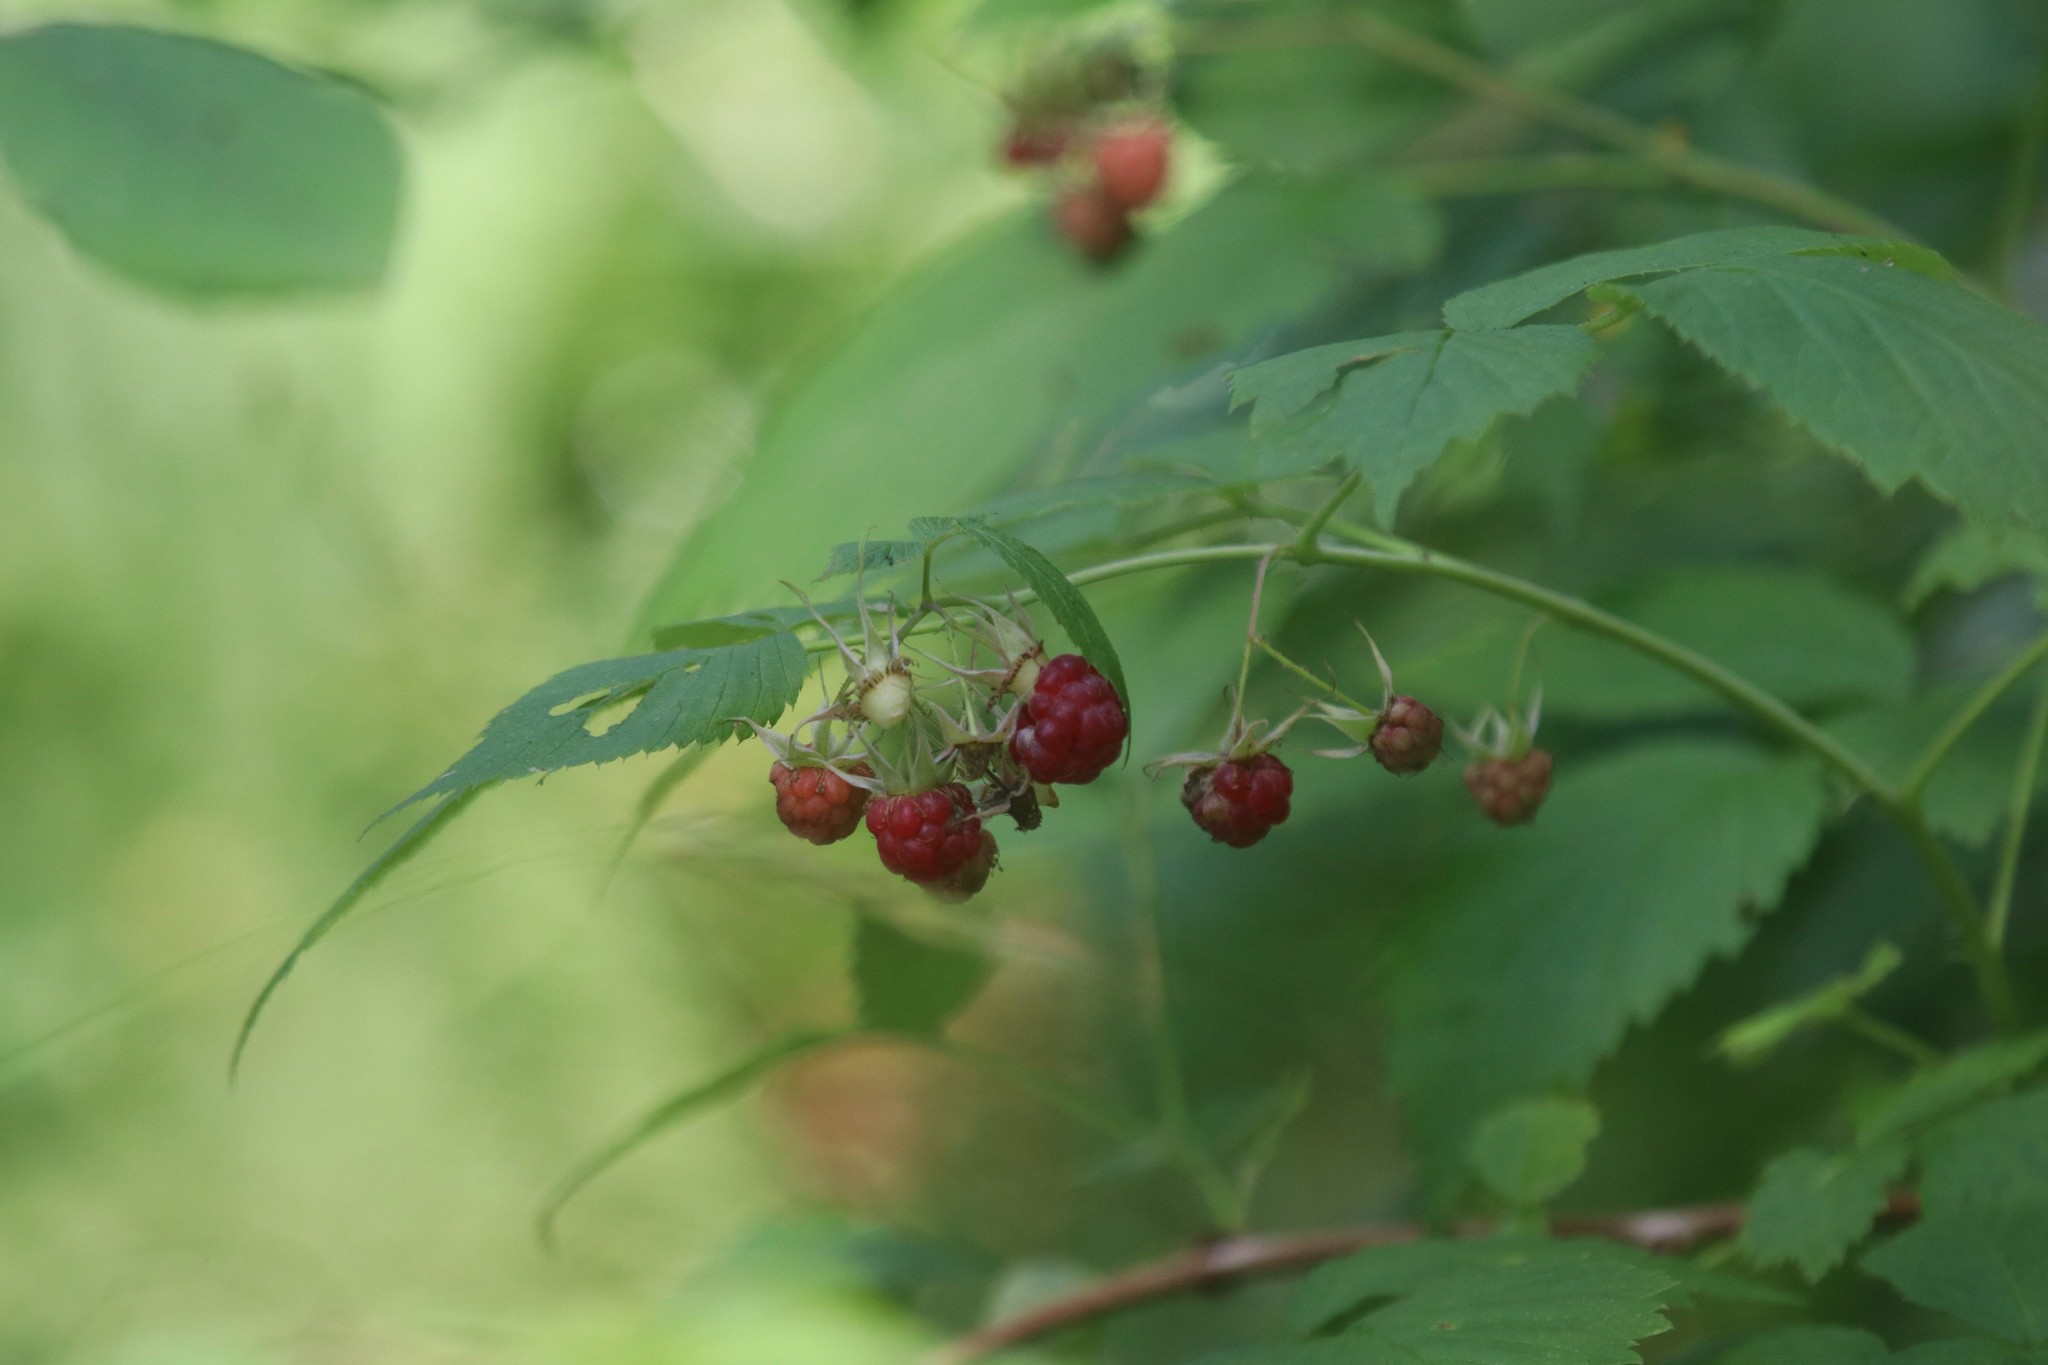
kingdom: Plantae
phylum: Tracheophyta
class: Magnoliopsida
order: Rosales
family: Rosaceae
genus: Rubus
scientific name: Rubus idaeus
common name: Raspberry
